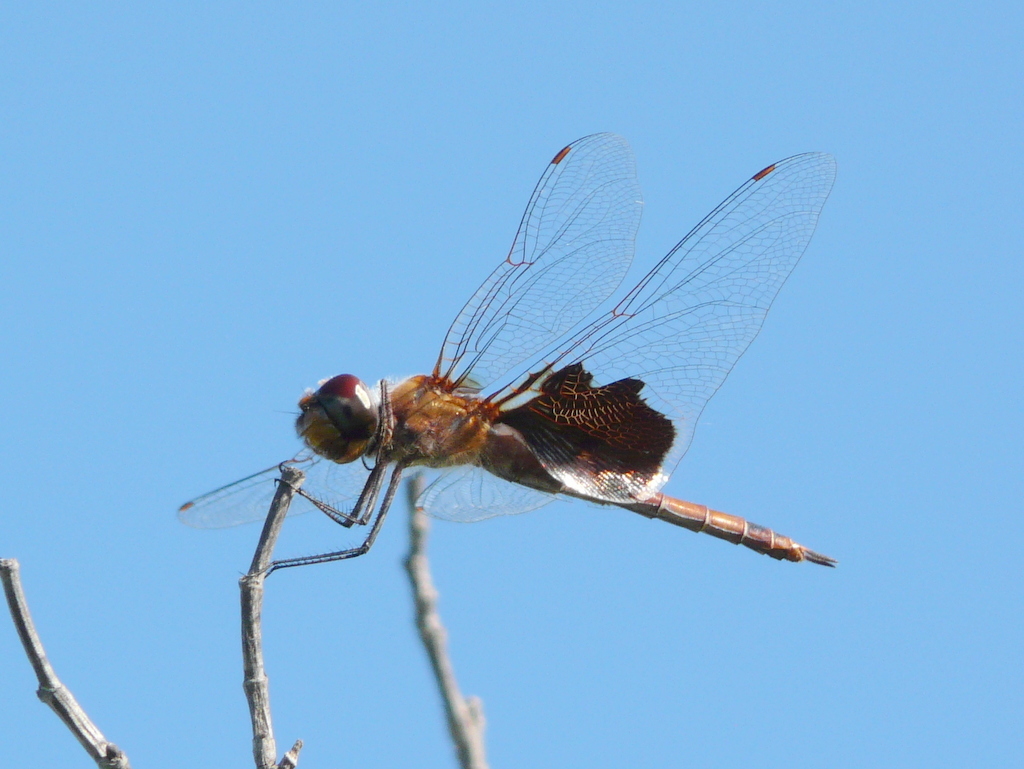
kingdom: Animalia
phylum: Arthropoda
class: Insecta
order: Odonata
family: Libellulidae
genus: Tramea
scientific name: Tramea onusta
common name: Red saddlebags
